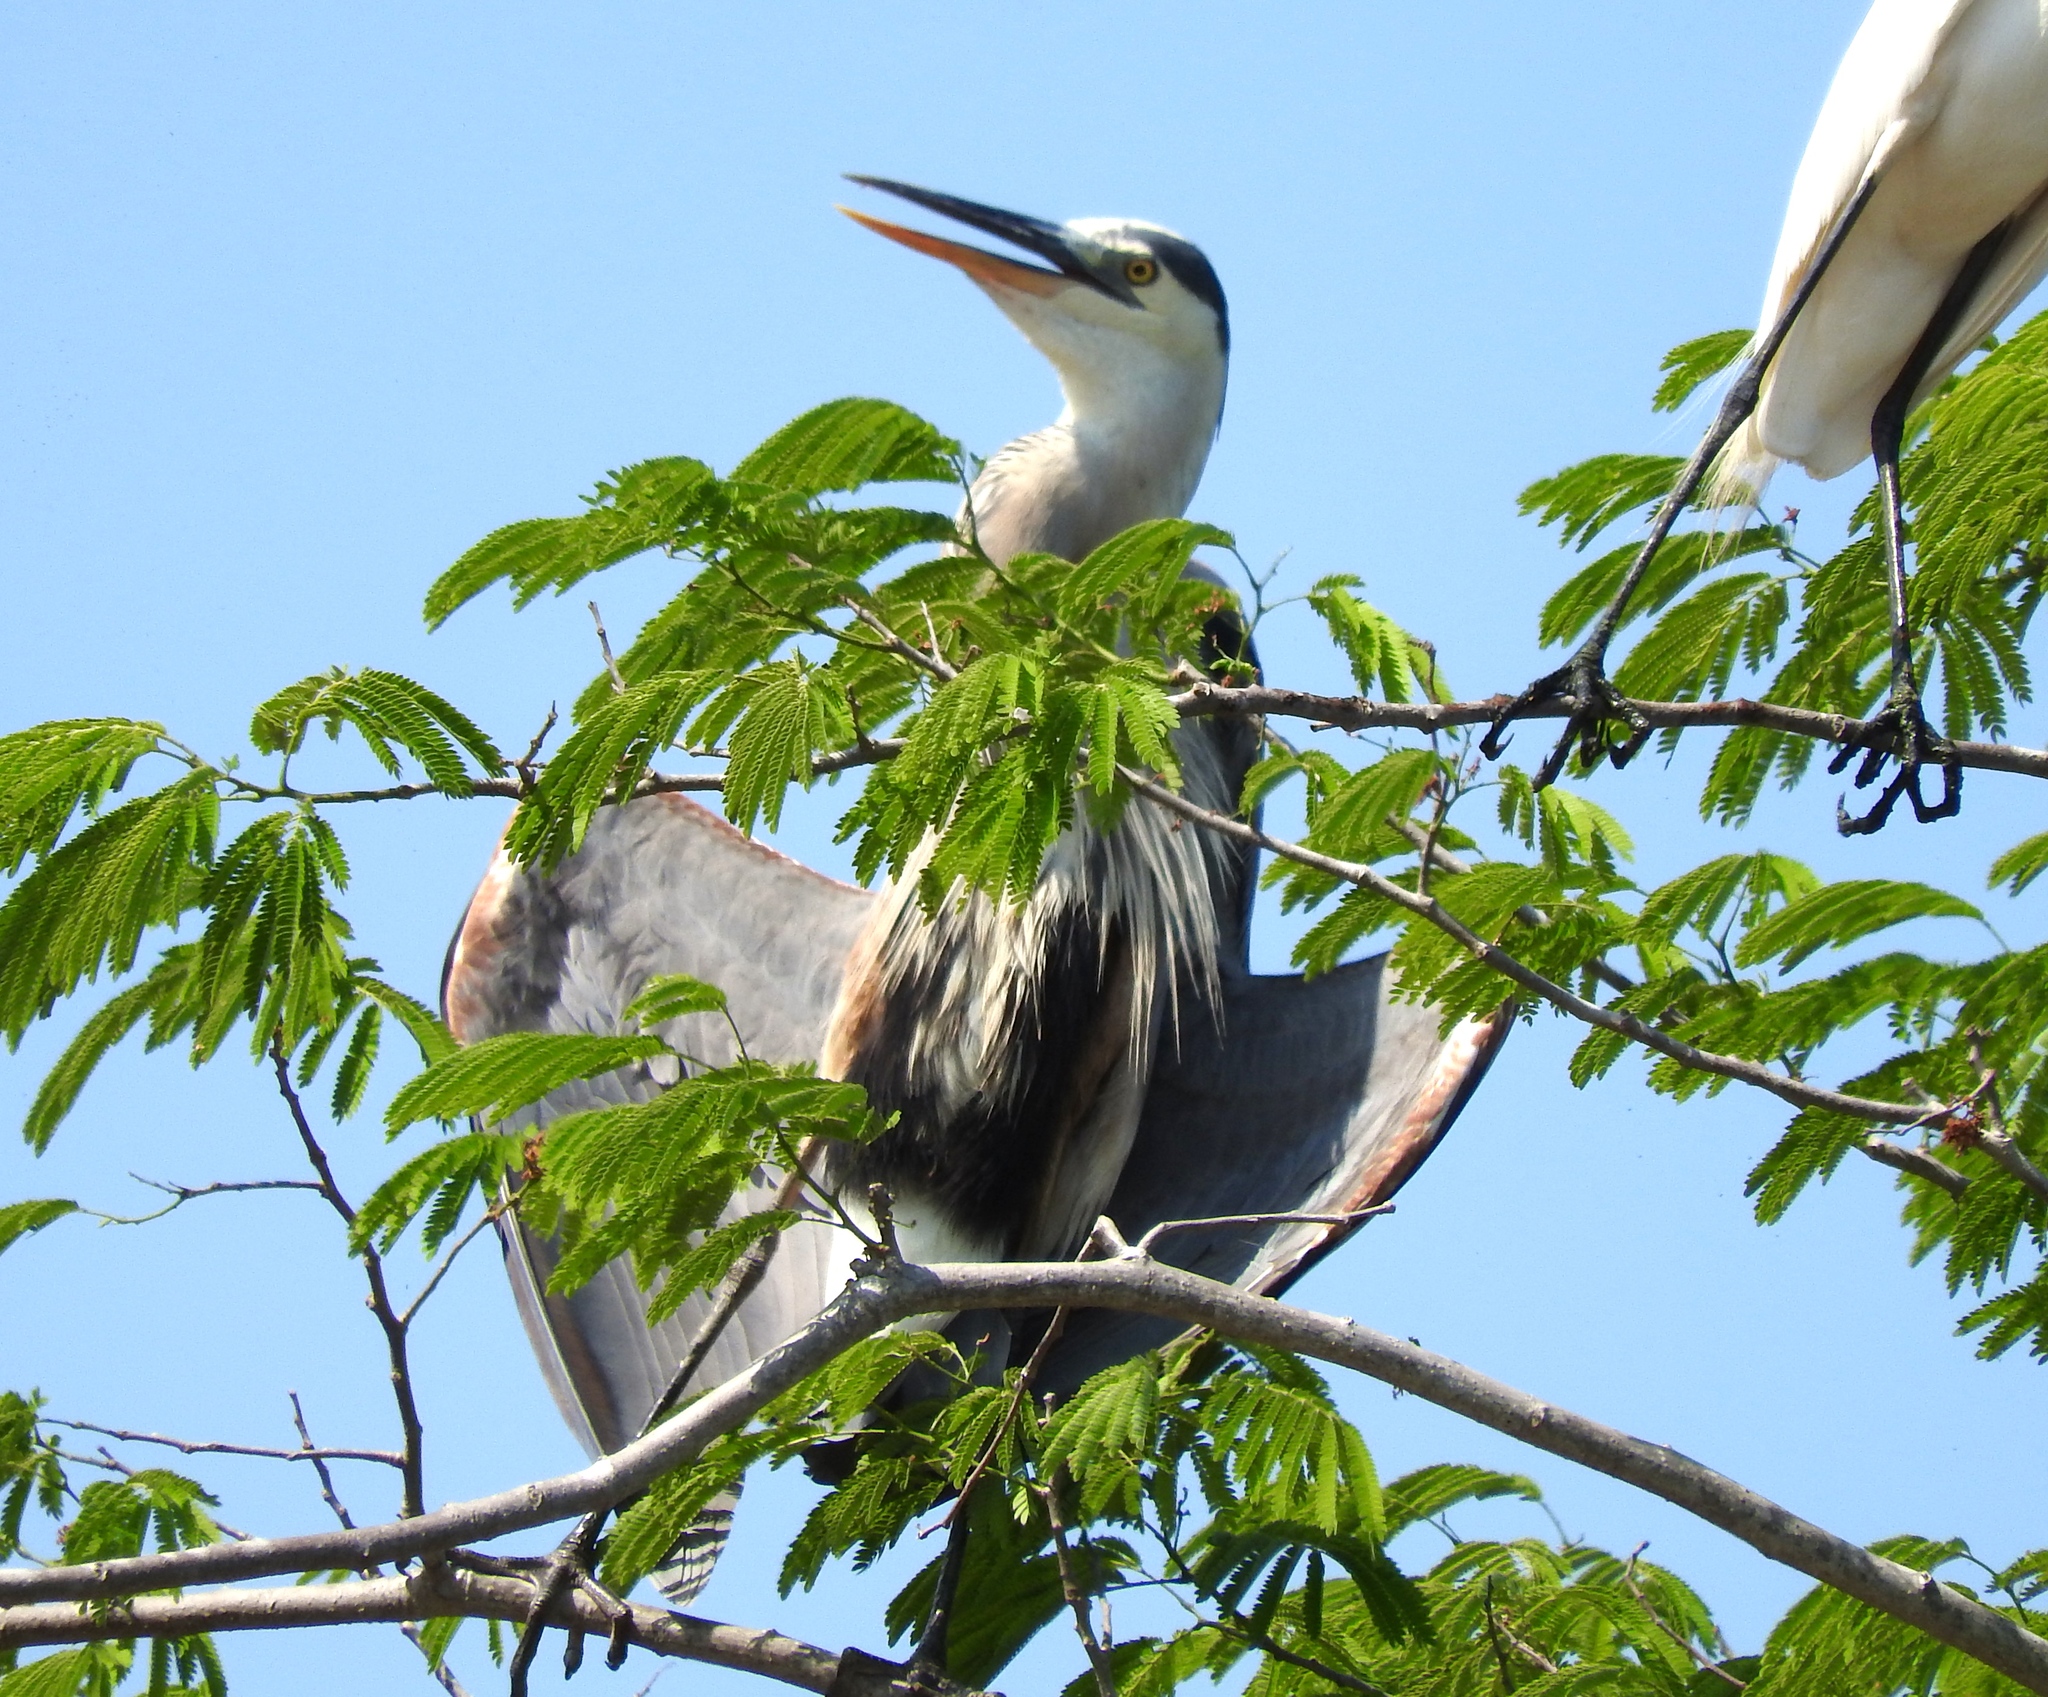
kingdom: Animalia
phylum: Chordata
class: Aves
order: Pelecaniformes
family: Ardeidae
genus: Ardea
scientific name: Ardea herodias
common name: Great blue heron
